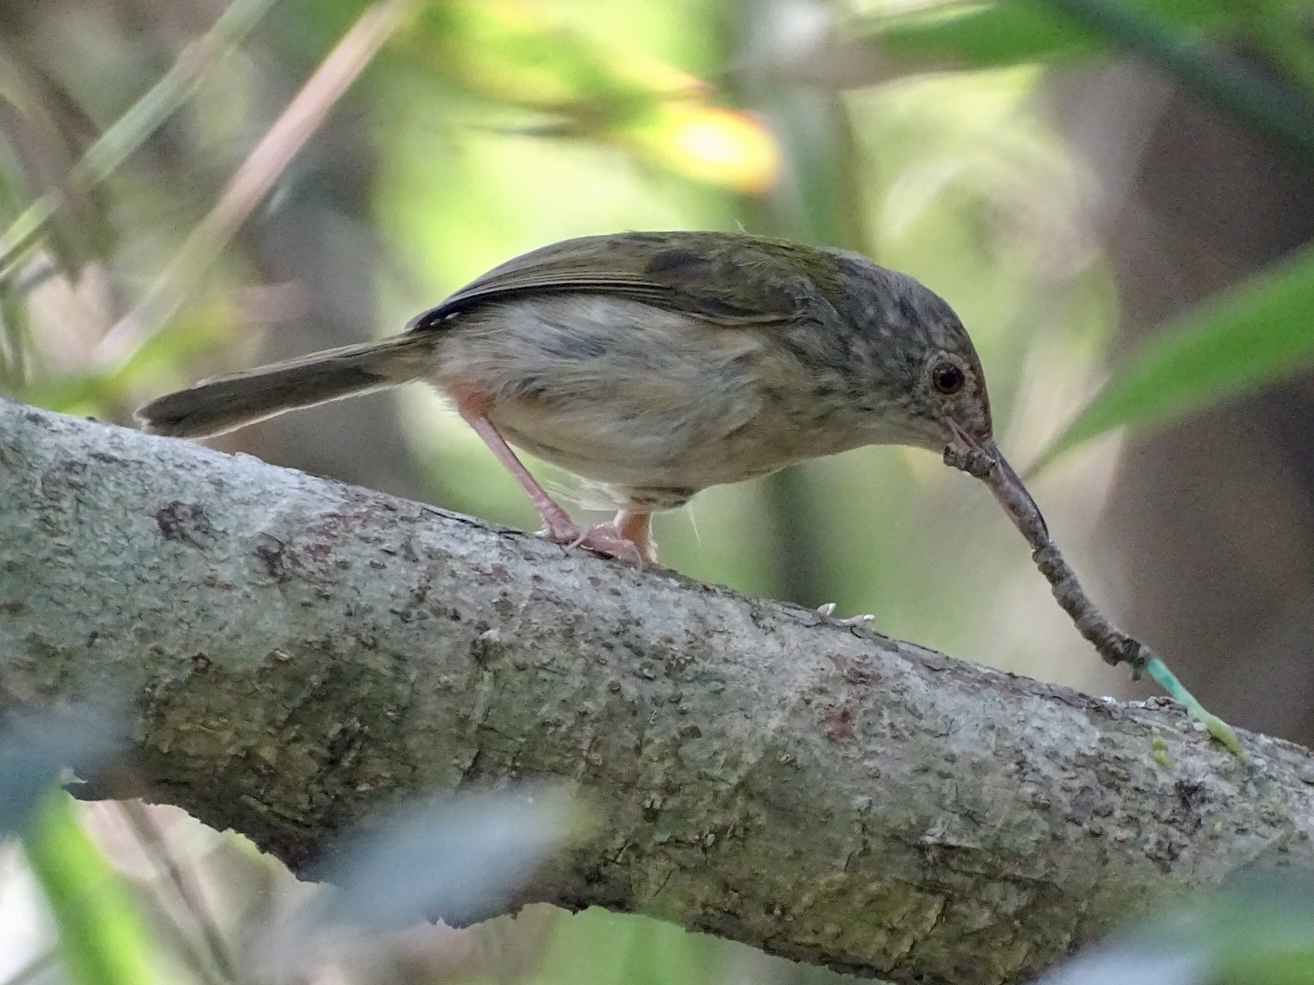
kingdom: Animalia
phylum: Chordata
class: Aves
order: Passeriformes
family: Cisticolidae
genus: Orthotomus
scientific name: Orthotomus sutorius
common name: Common tailorbird
